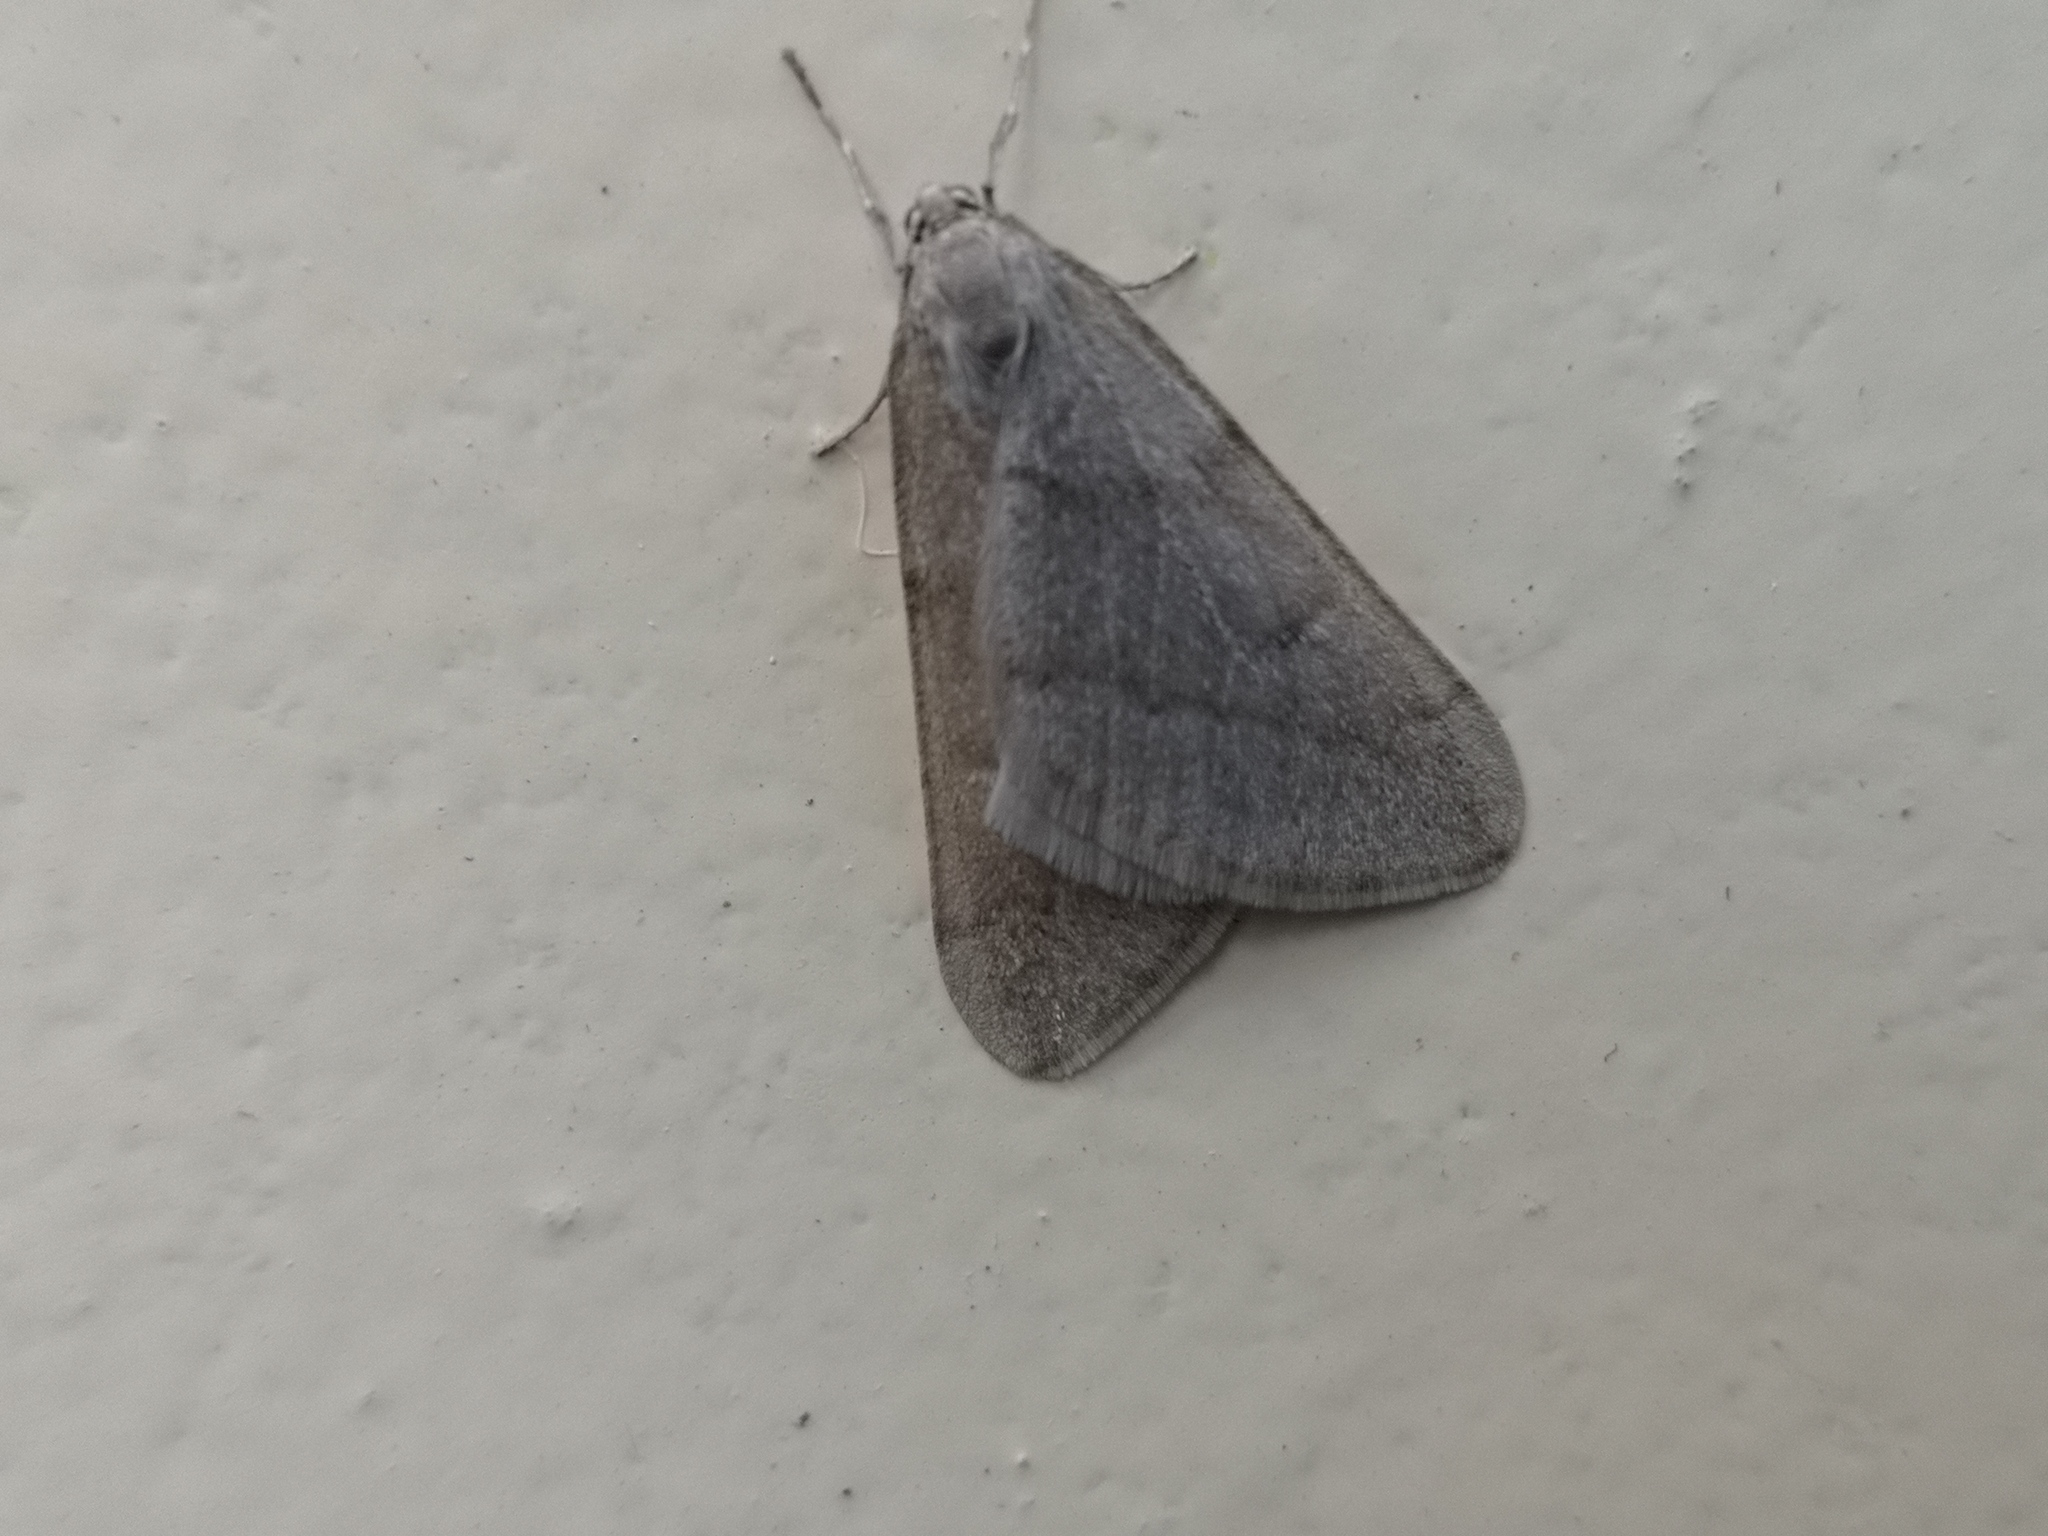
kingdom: Animalia
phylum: Arthropoda
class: Insecta
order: Lepidoptera
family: Geometridae
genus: Alsophila
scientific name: Alsophila aceraria
